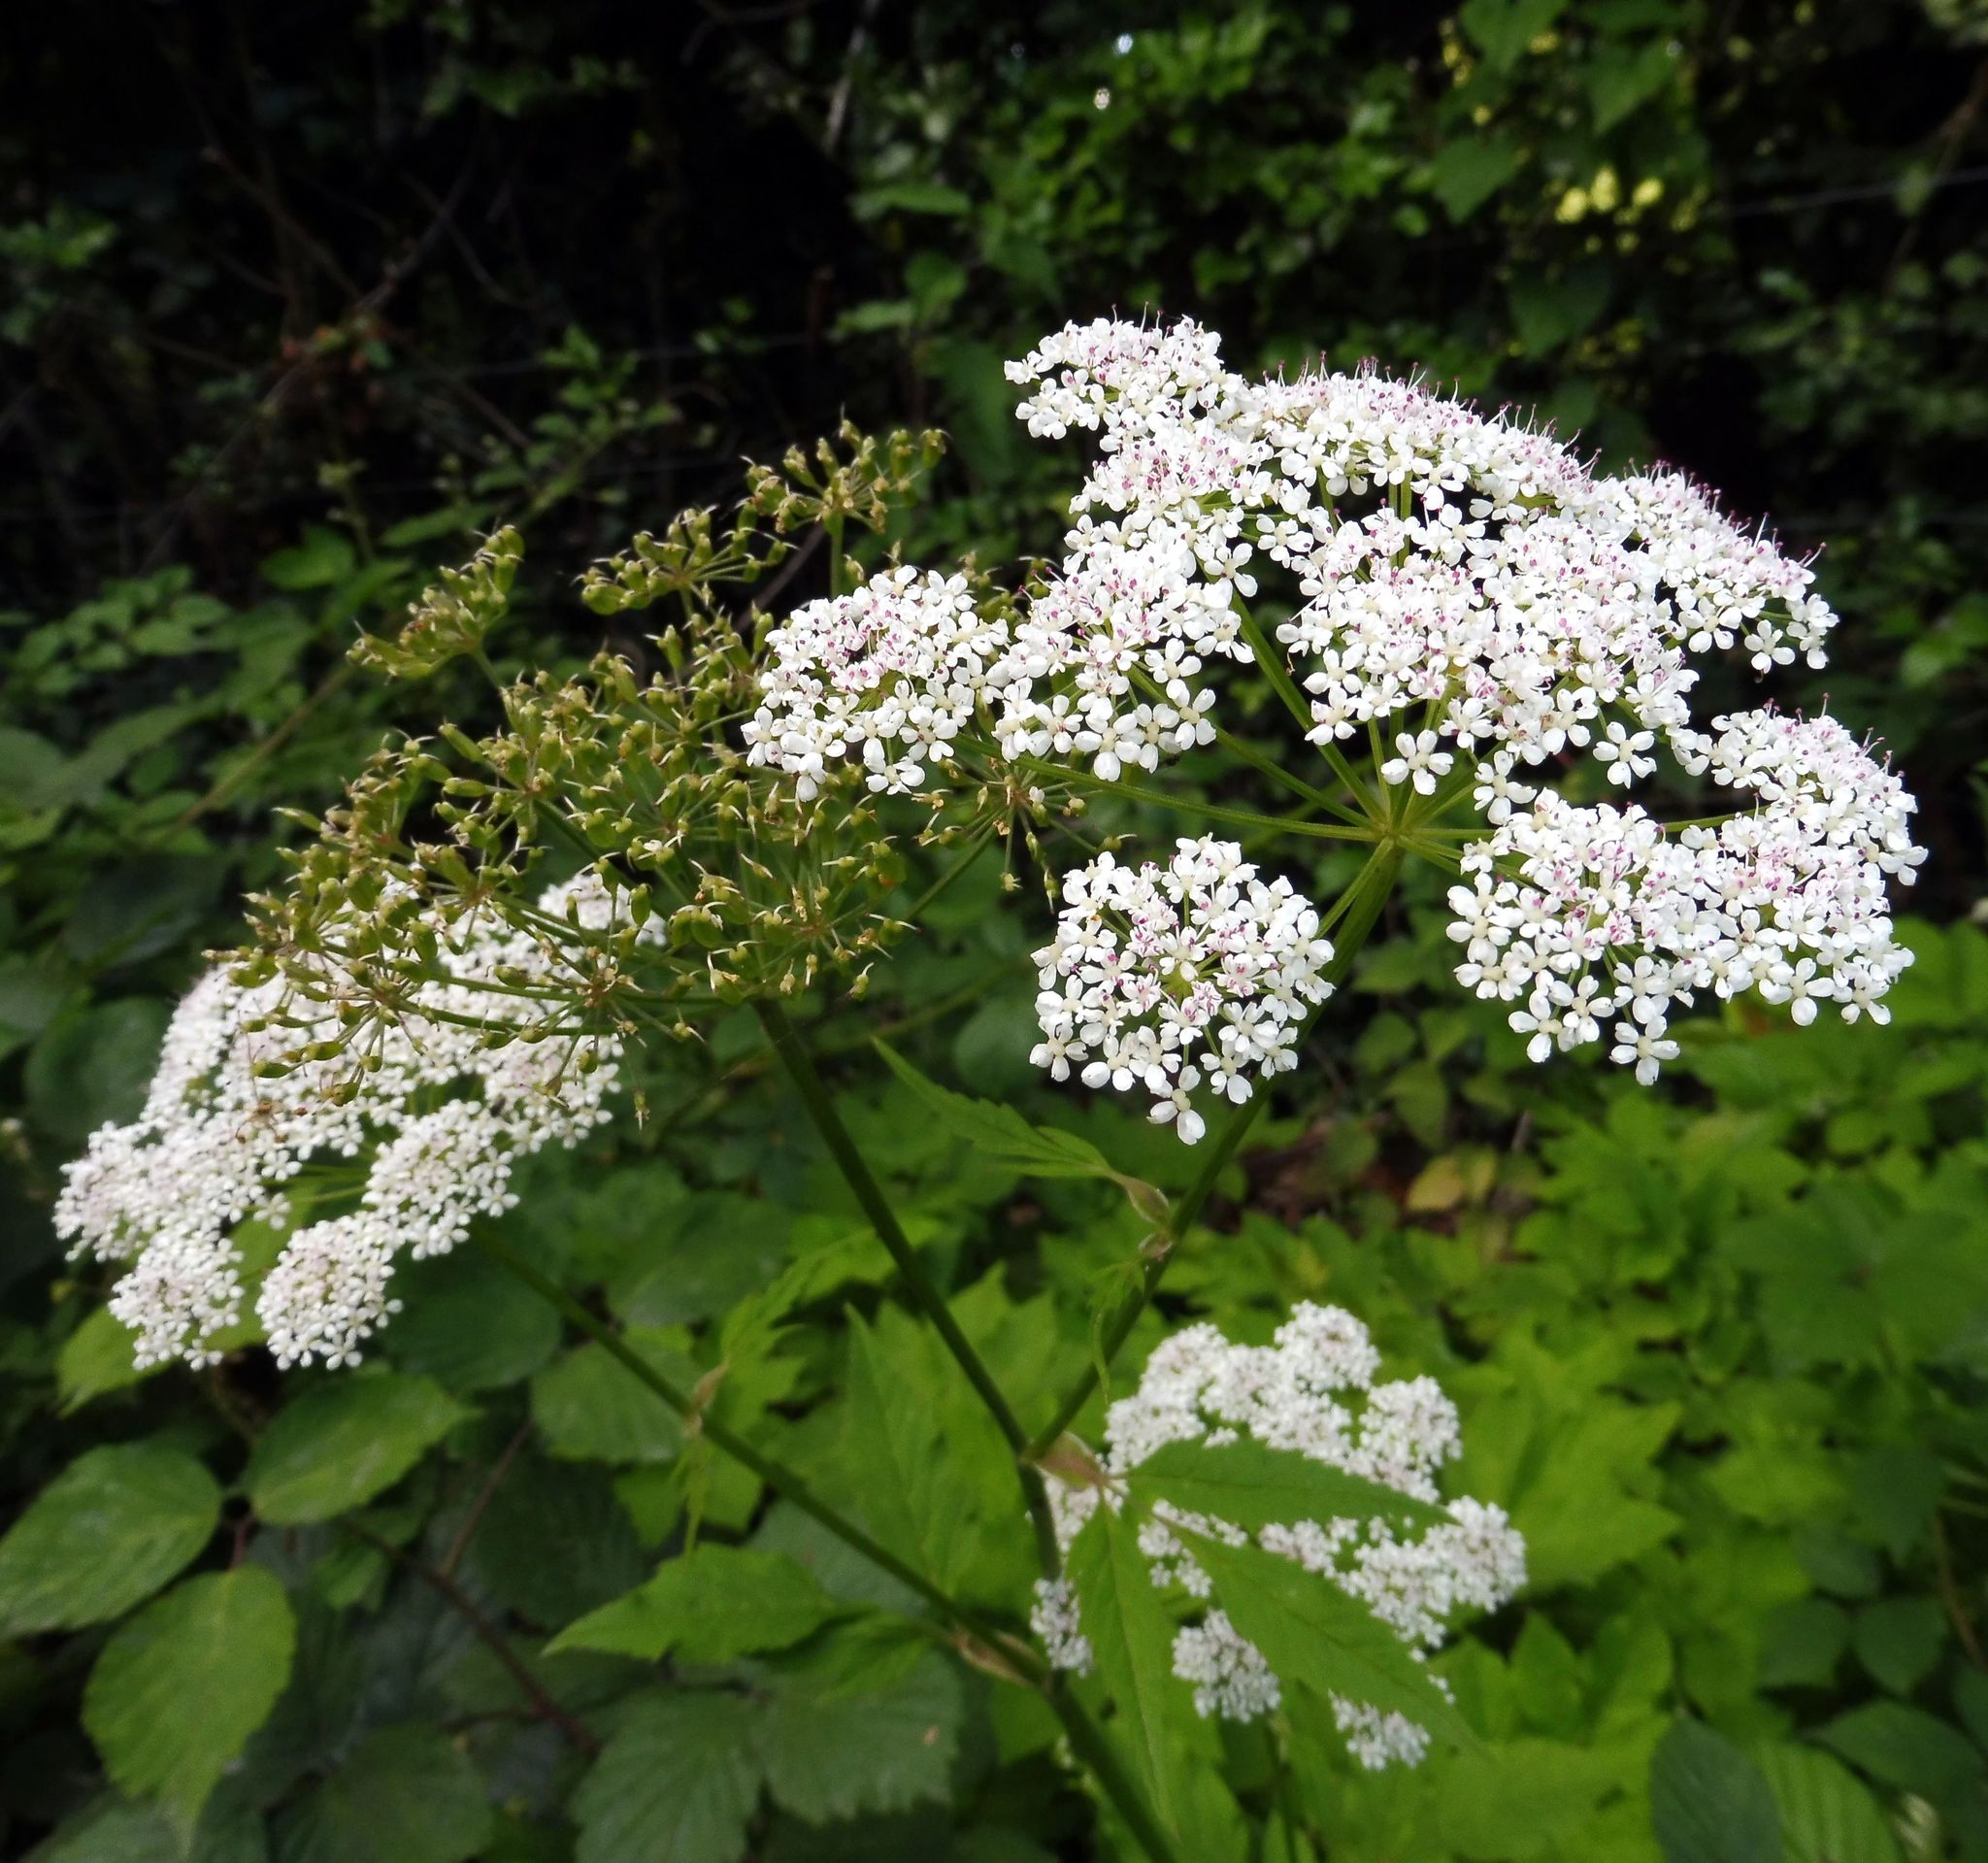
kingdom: Plantae
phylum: Tracheophyta
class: Magnoliopsida
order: Apiales
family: Apiaceae
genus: Aegopodium
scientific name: Aegopodium podagraria
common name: Ground-elder
